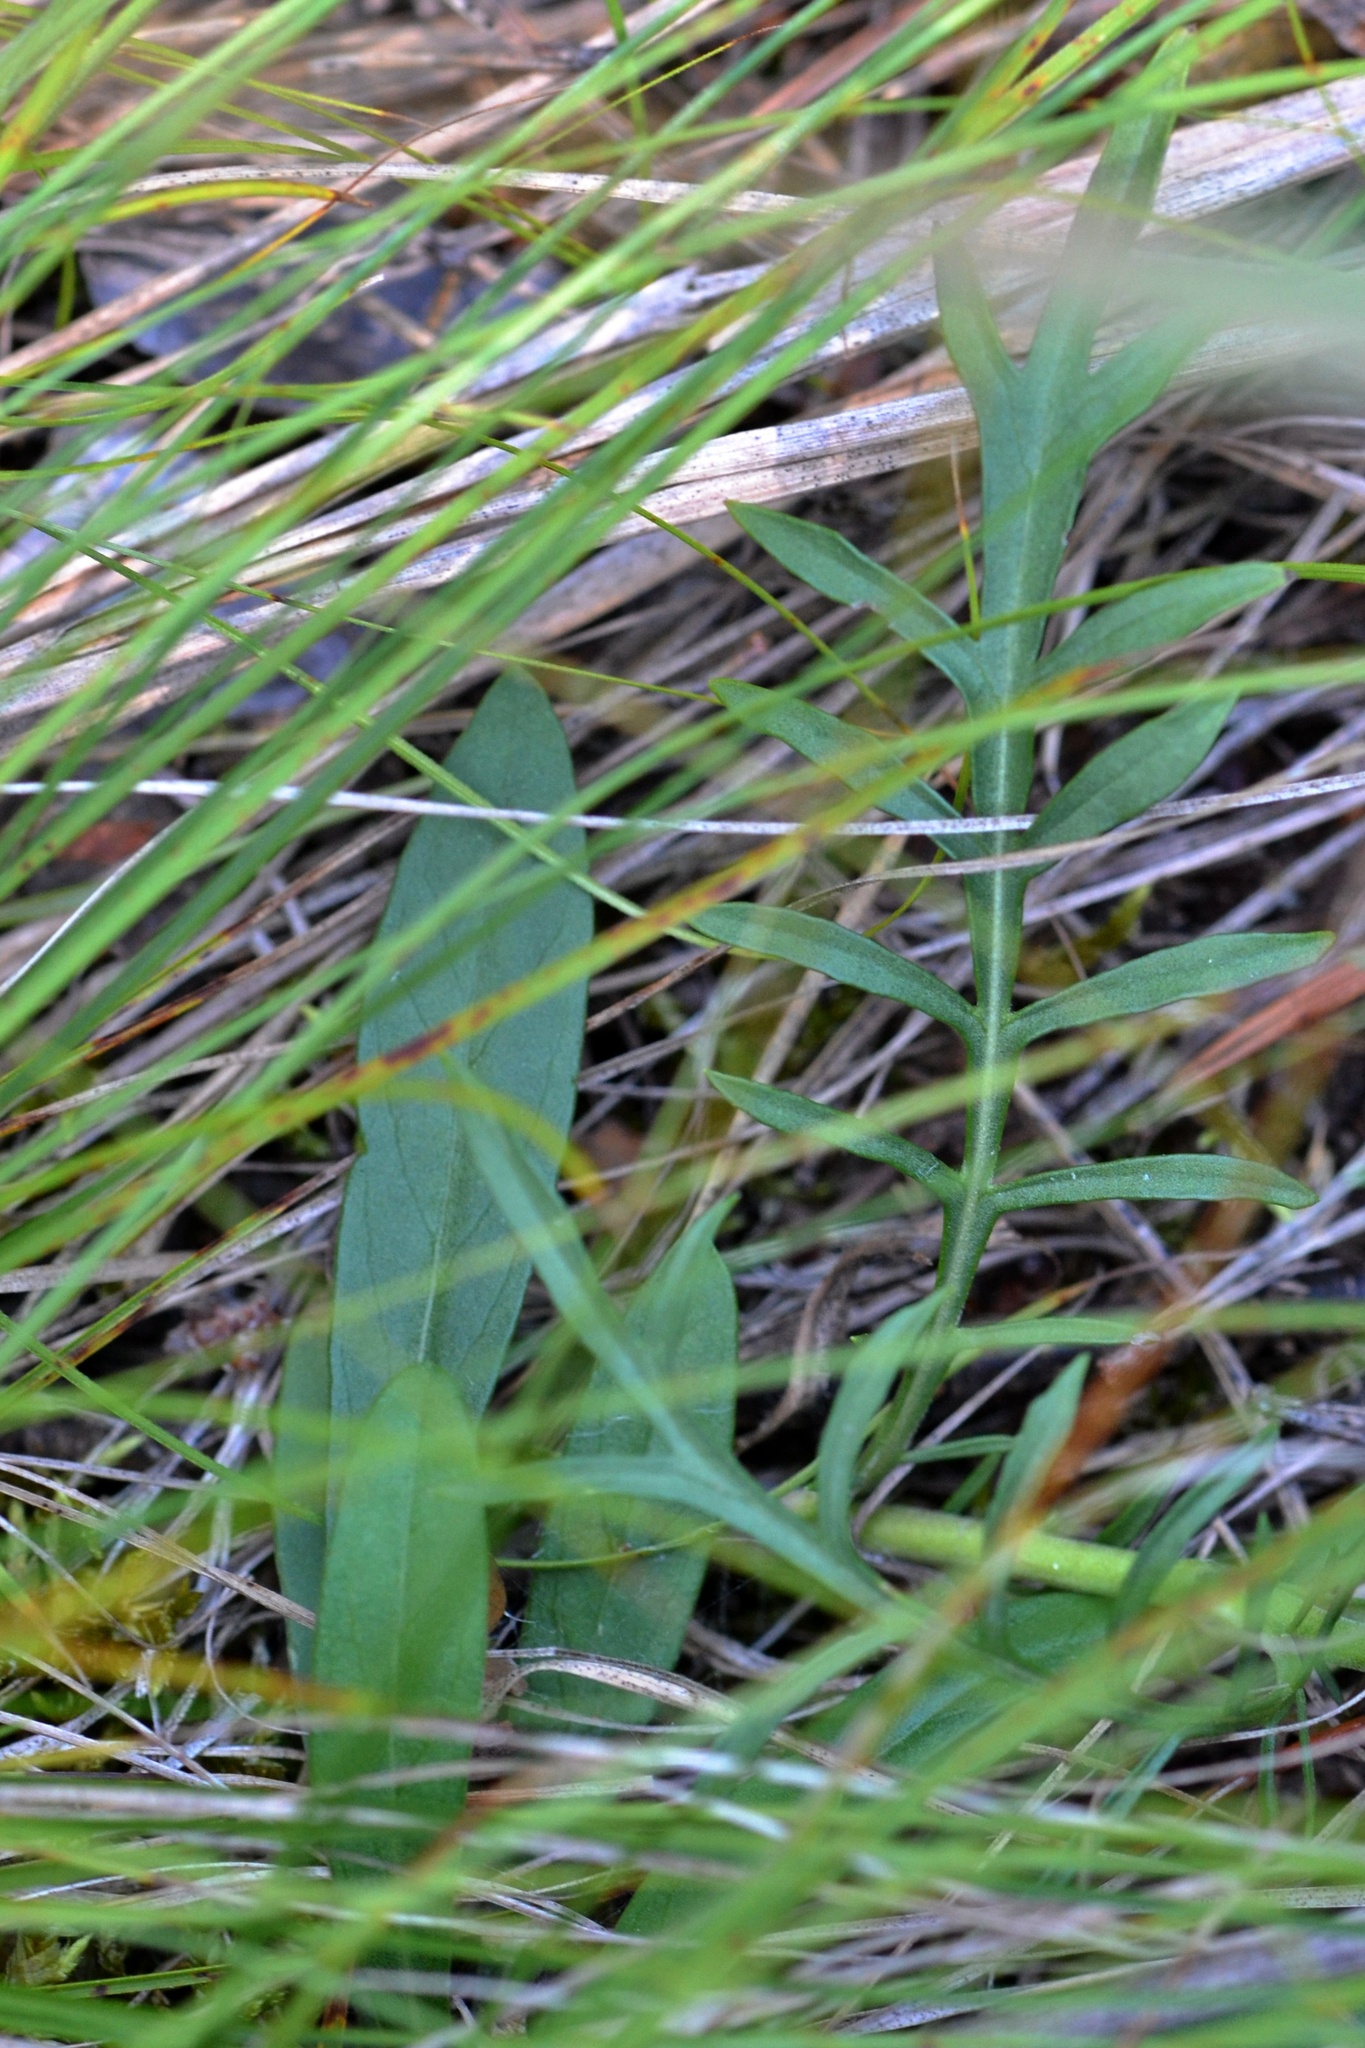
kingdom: Plantae
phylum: Tracheophyta
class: Magnoliopsida
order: Dipsacales
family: Caprifoliaceae
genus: Scabiosa
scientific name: Scabiosa ochroleuca
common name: Cream pincushions
